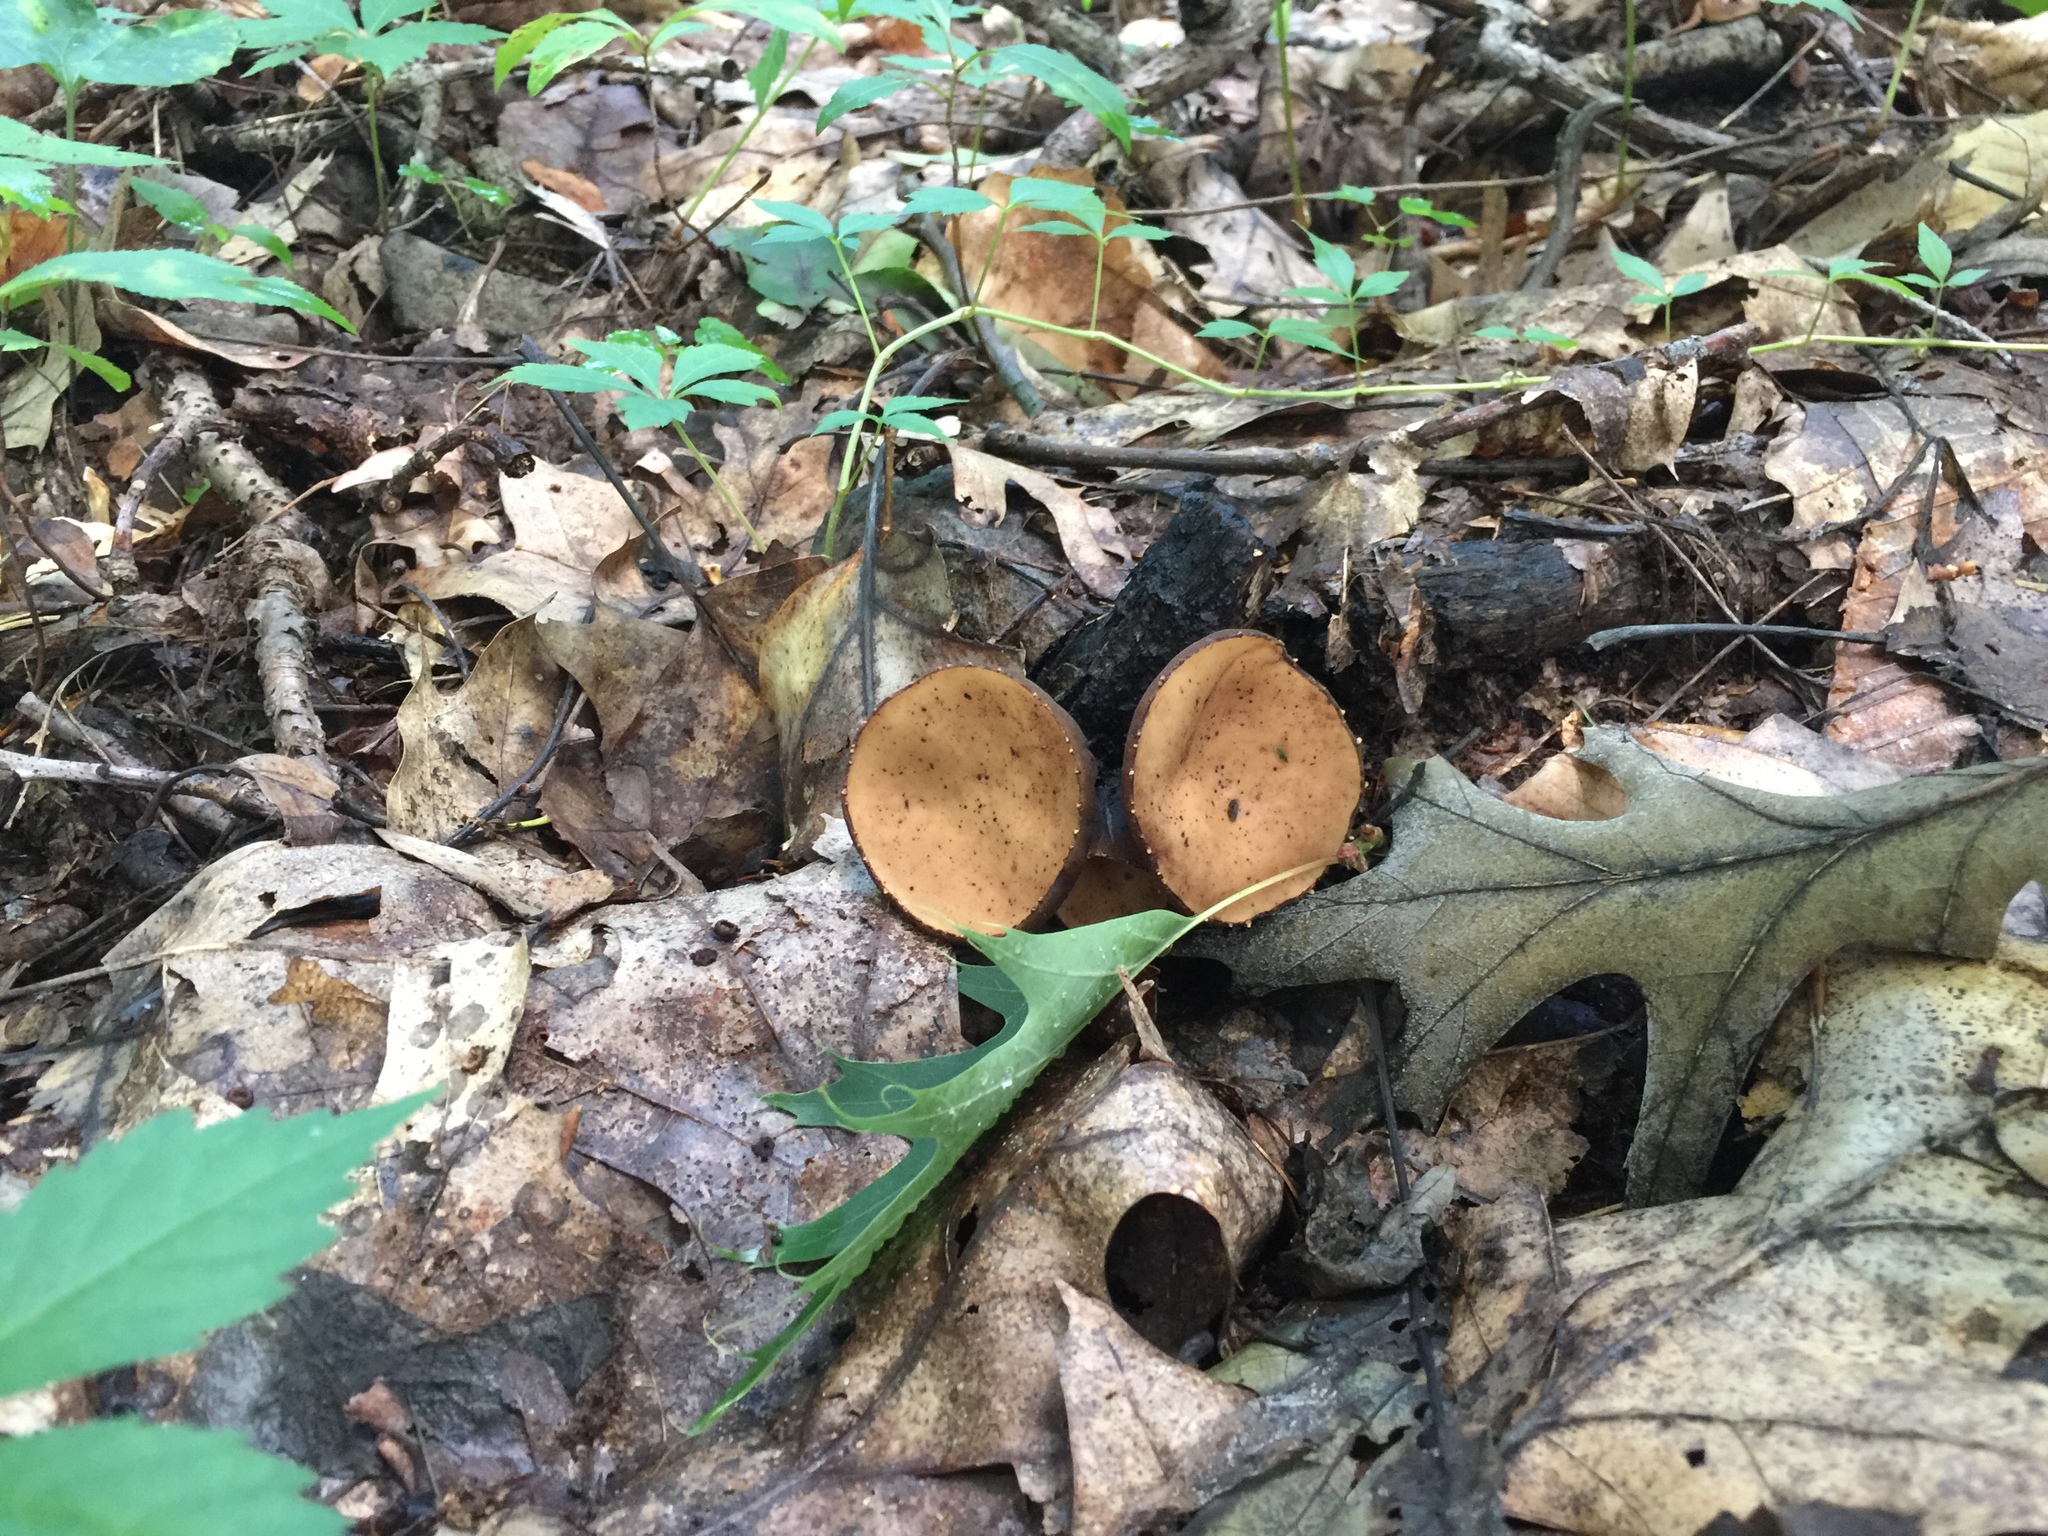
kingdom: Fungi
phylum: Ascomycota
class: Pezizomycetes
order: Pezizales
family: Sarcosomataceae
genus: Galiella
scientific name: Galiella rufa
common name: Hairy rubber cup
